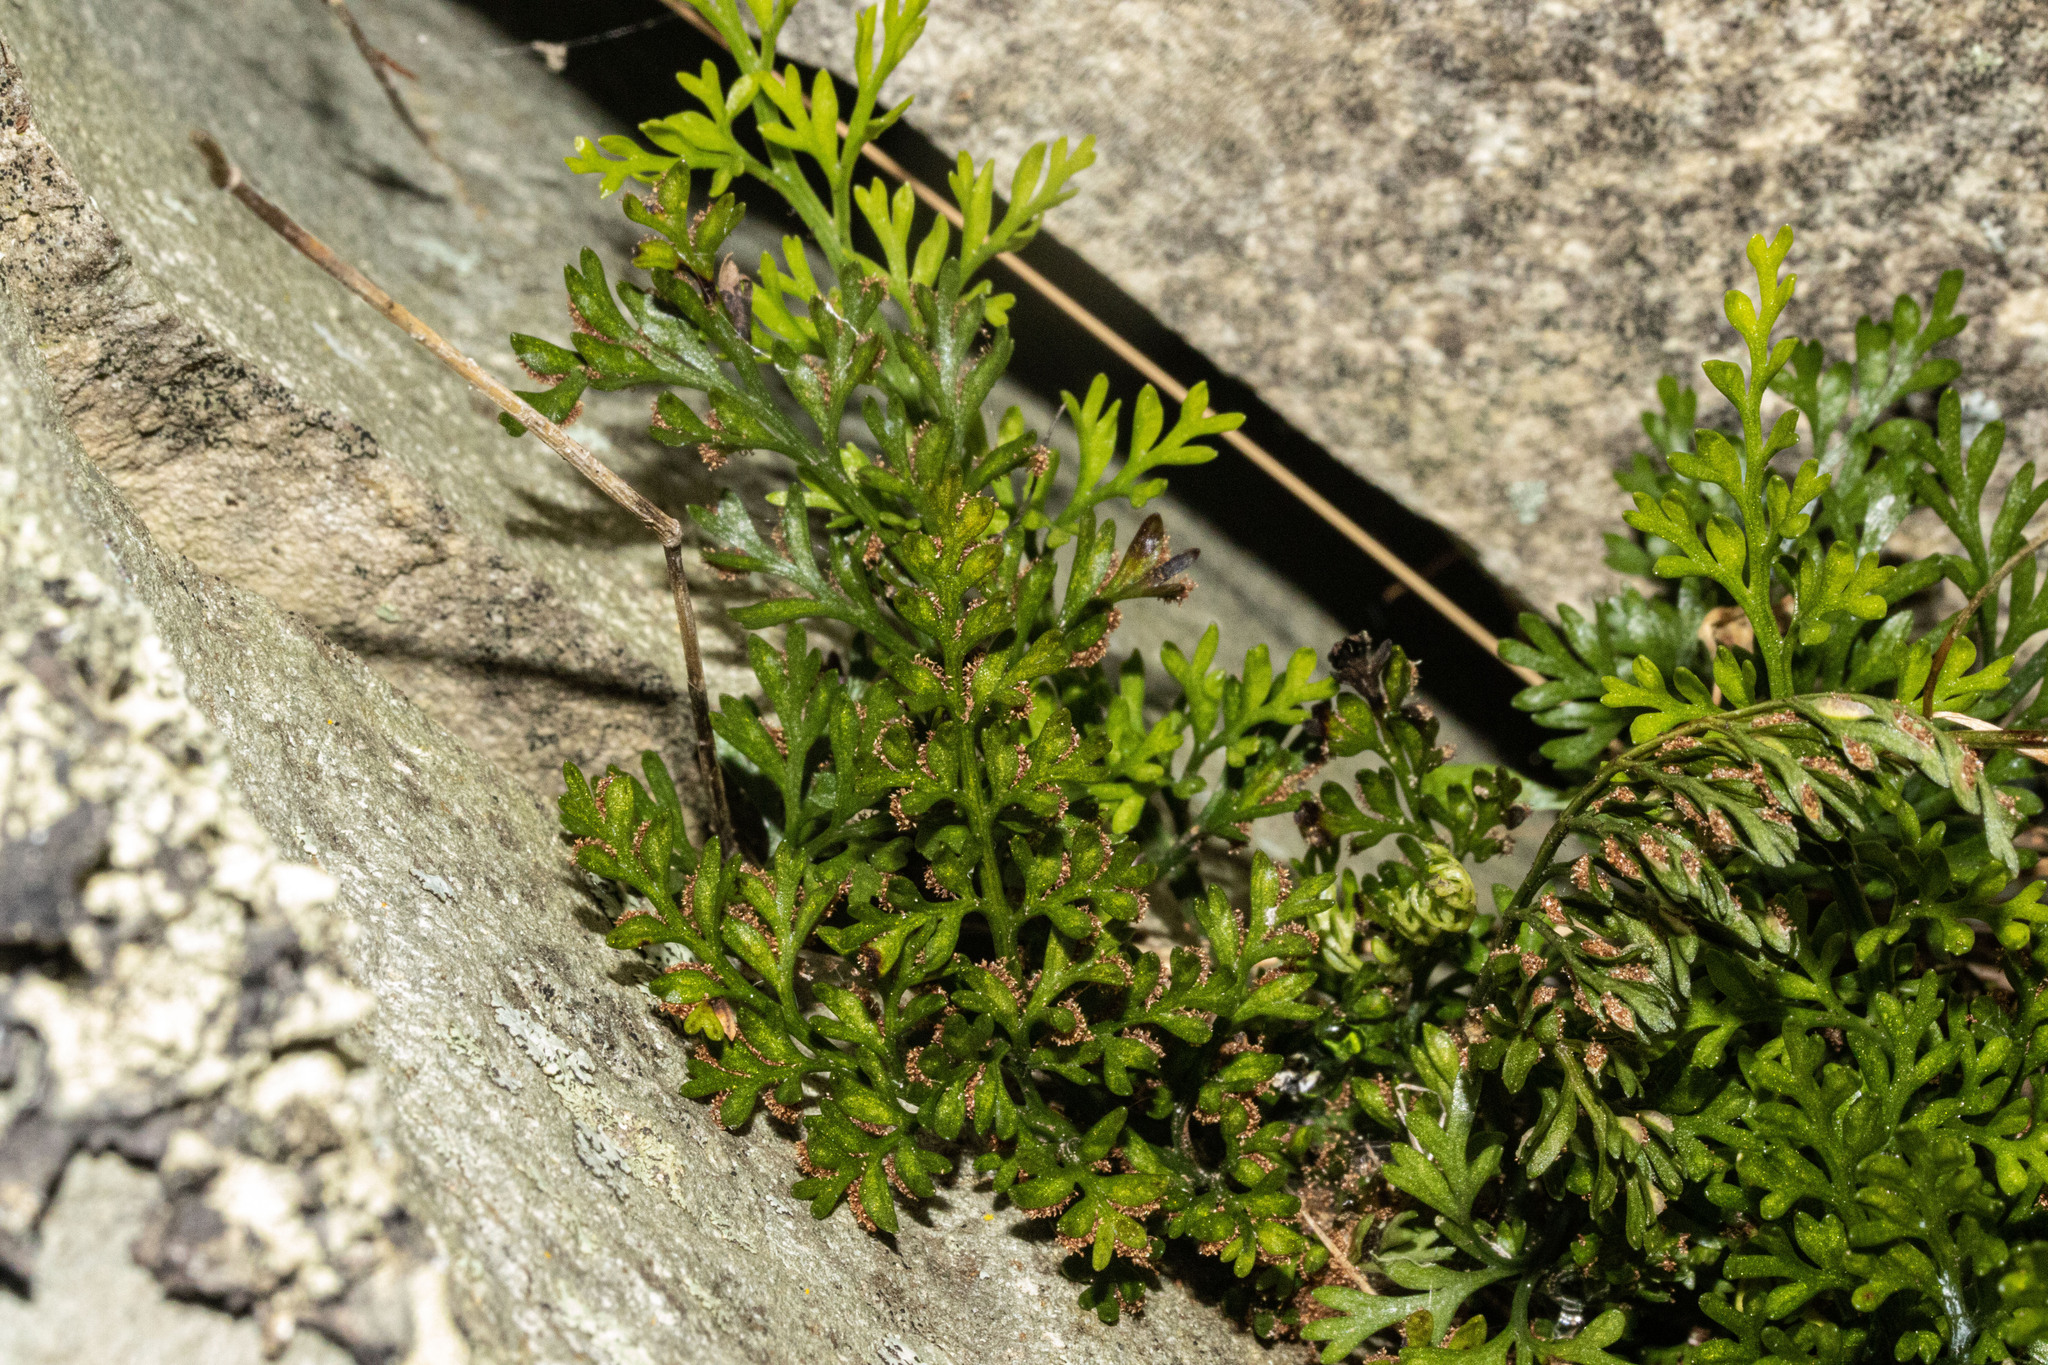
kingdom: Plantae
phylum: Tracheophyta
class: Polypodiopsida
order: Polypodiales
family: Aspleniaceae
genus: Asplenium
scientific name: Asplenium richardii
